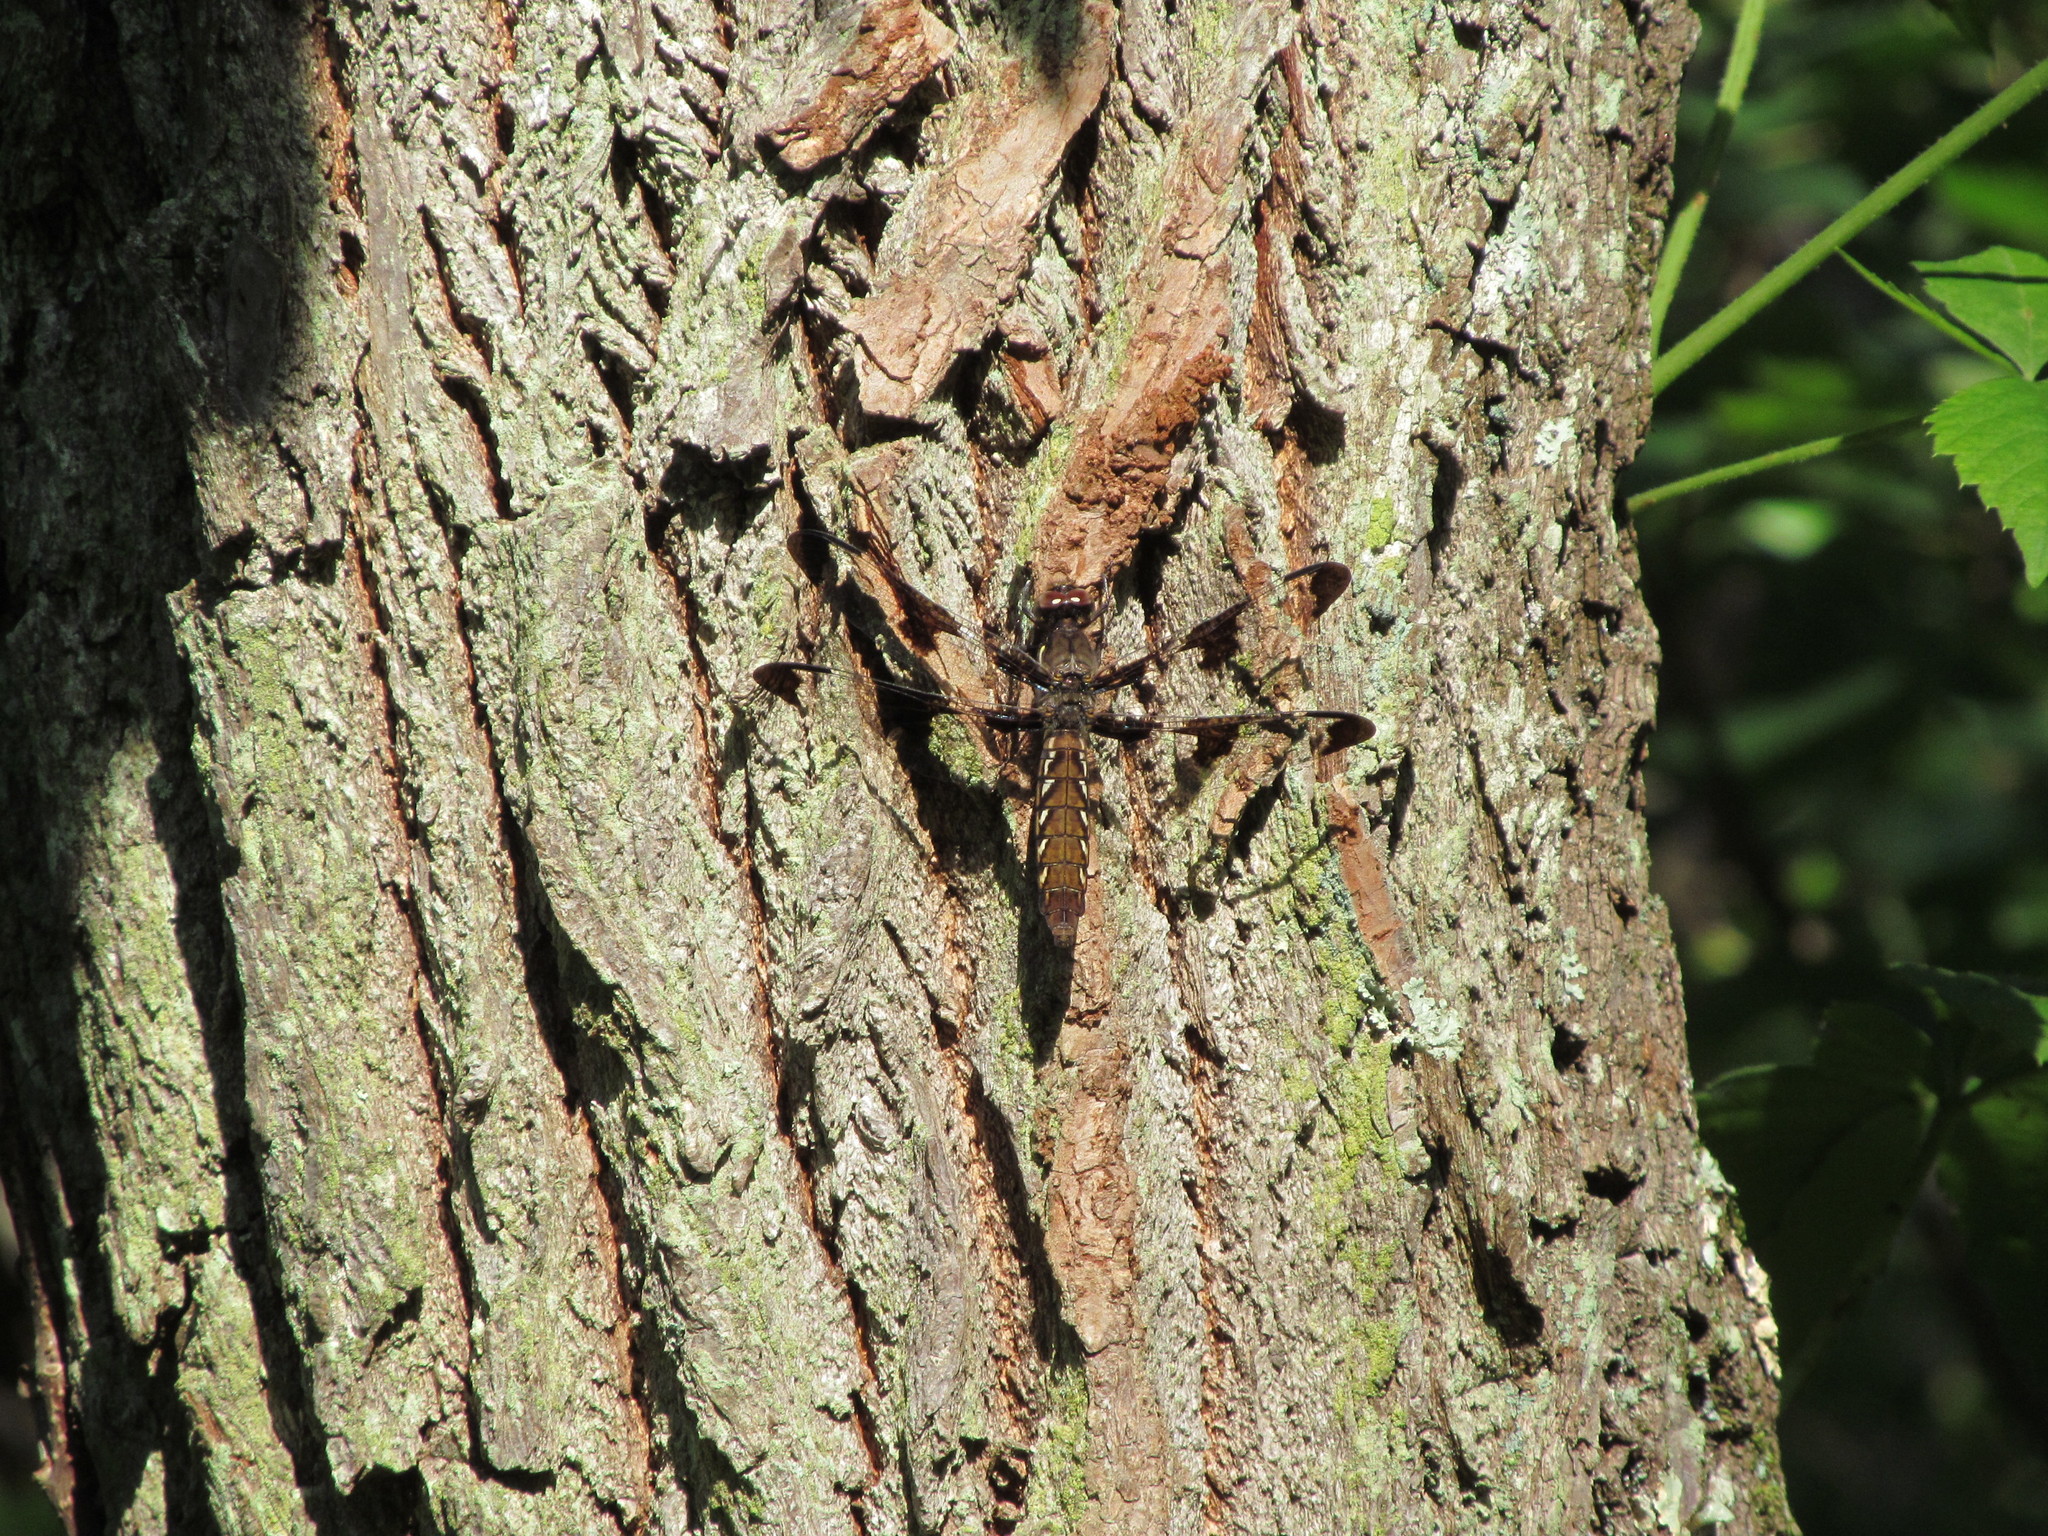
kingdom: Animalia
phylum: Arthropoda
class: Insecta
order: Odonata
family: Libellulidae
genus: Plathemis
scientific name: Plathemis lydia
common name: Common whitetail
